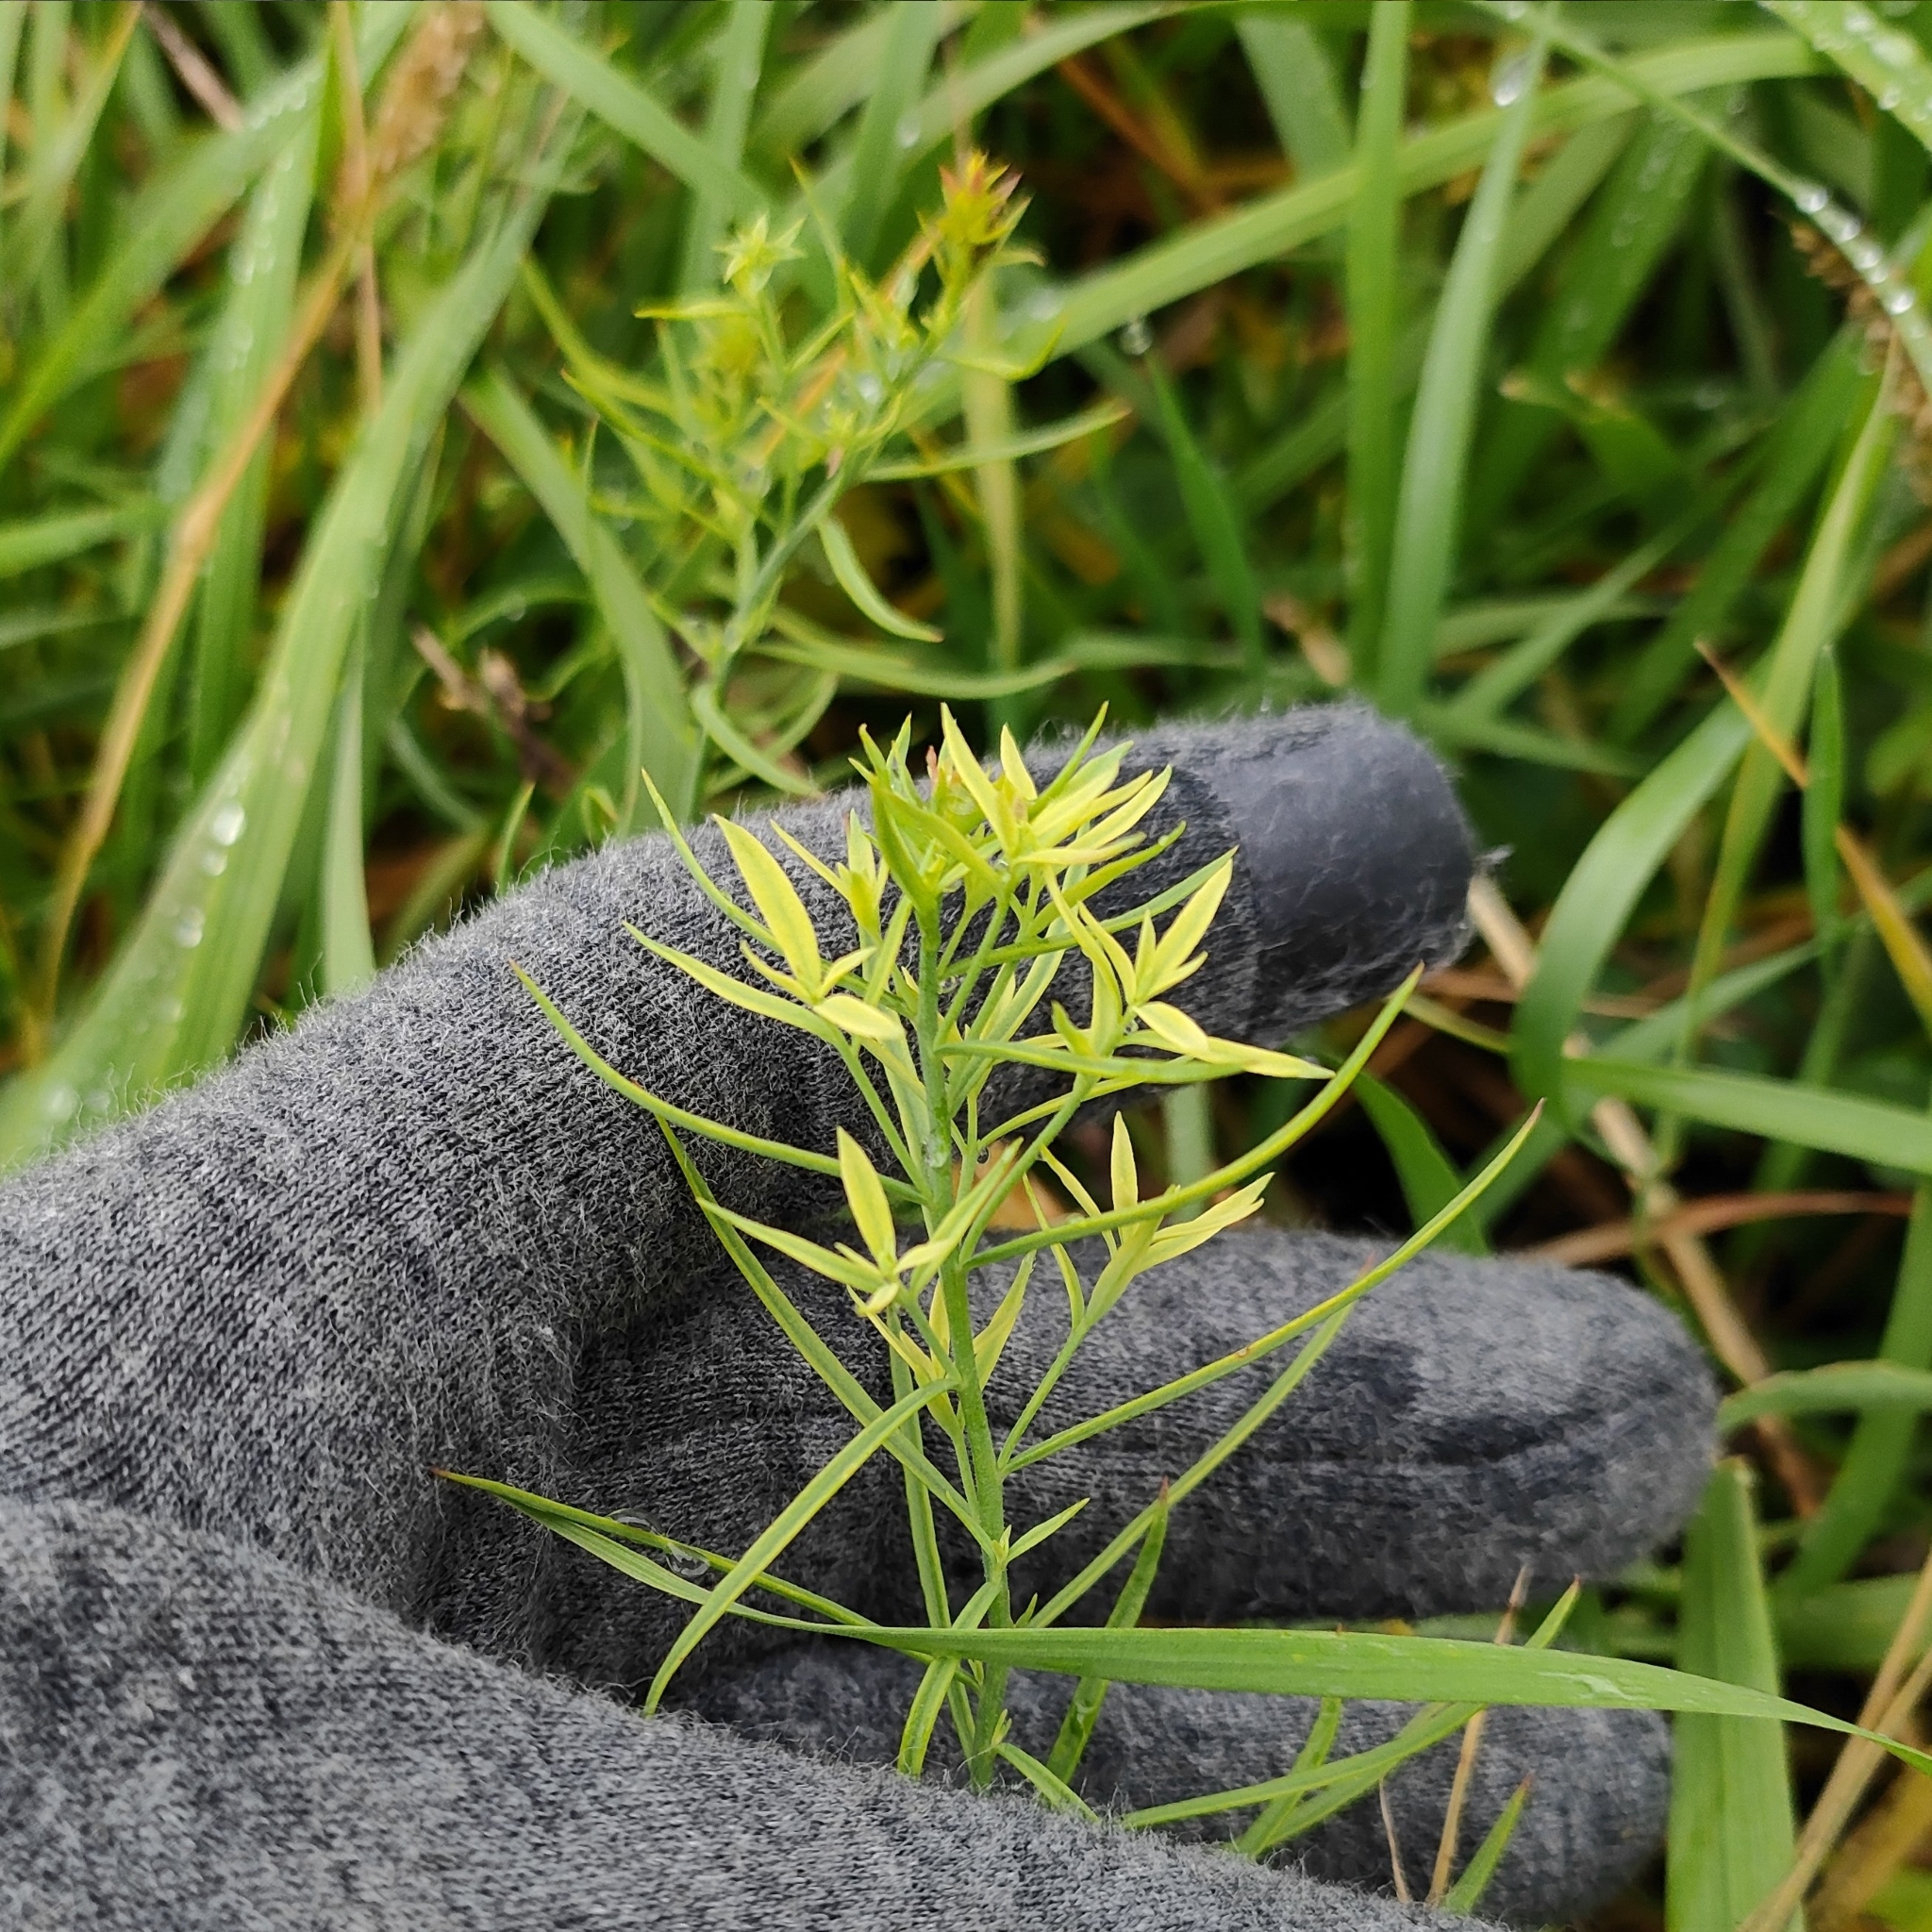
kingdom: Plantae
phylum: Tracheophyta
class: Magnoliopsida
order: Lamiales
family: Plantaginaceae
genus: Linaria
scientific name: Linaria vulgaris
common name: Butter and eggs
